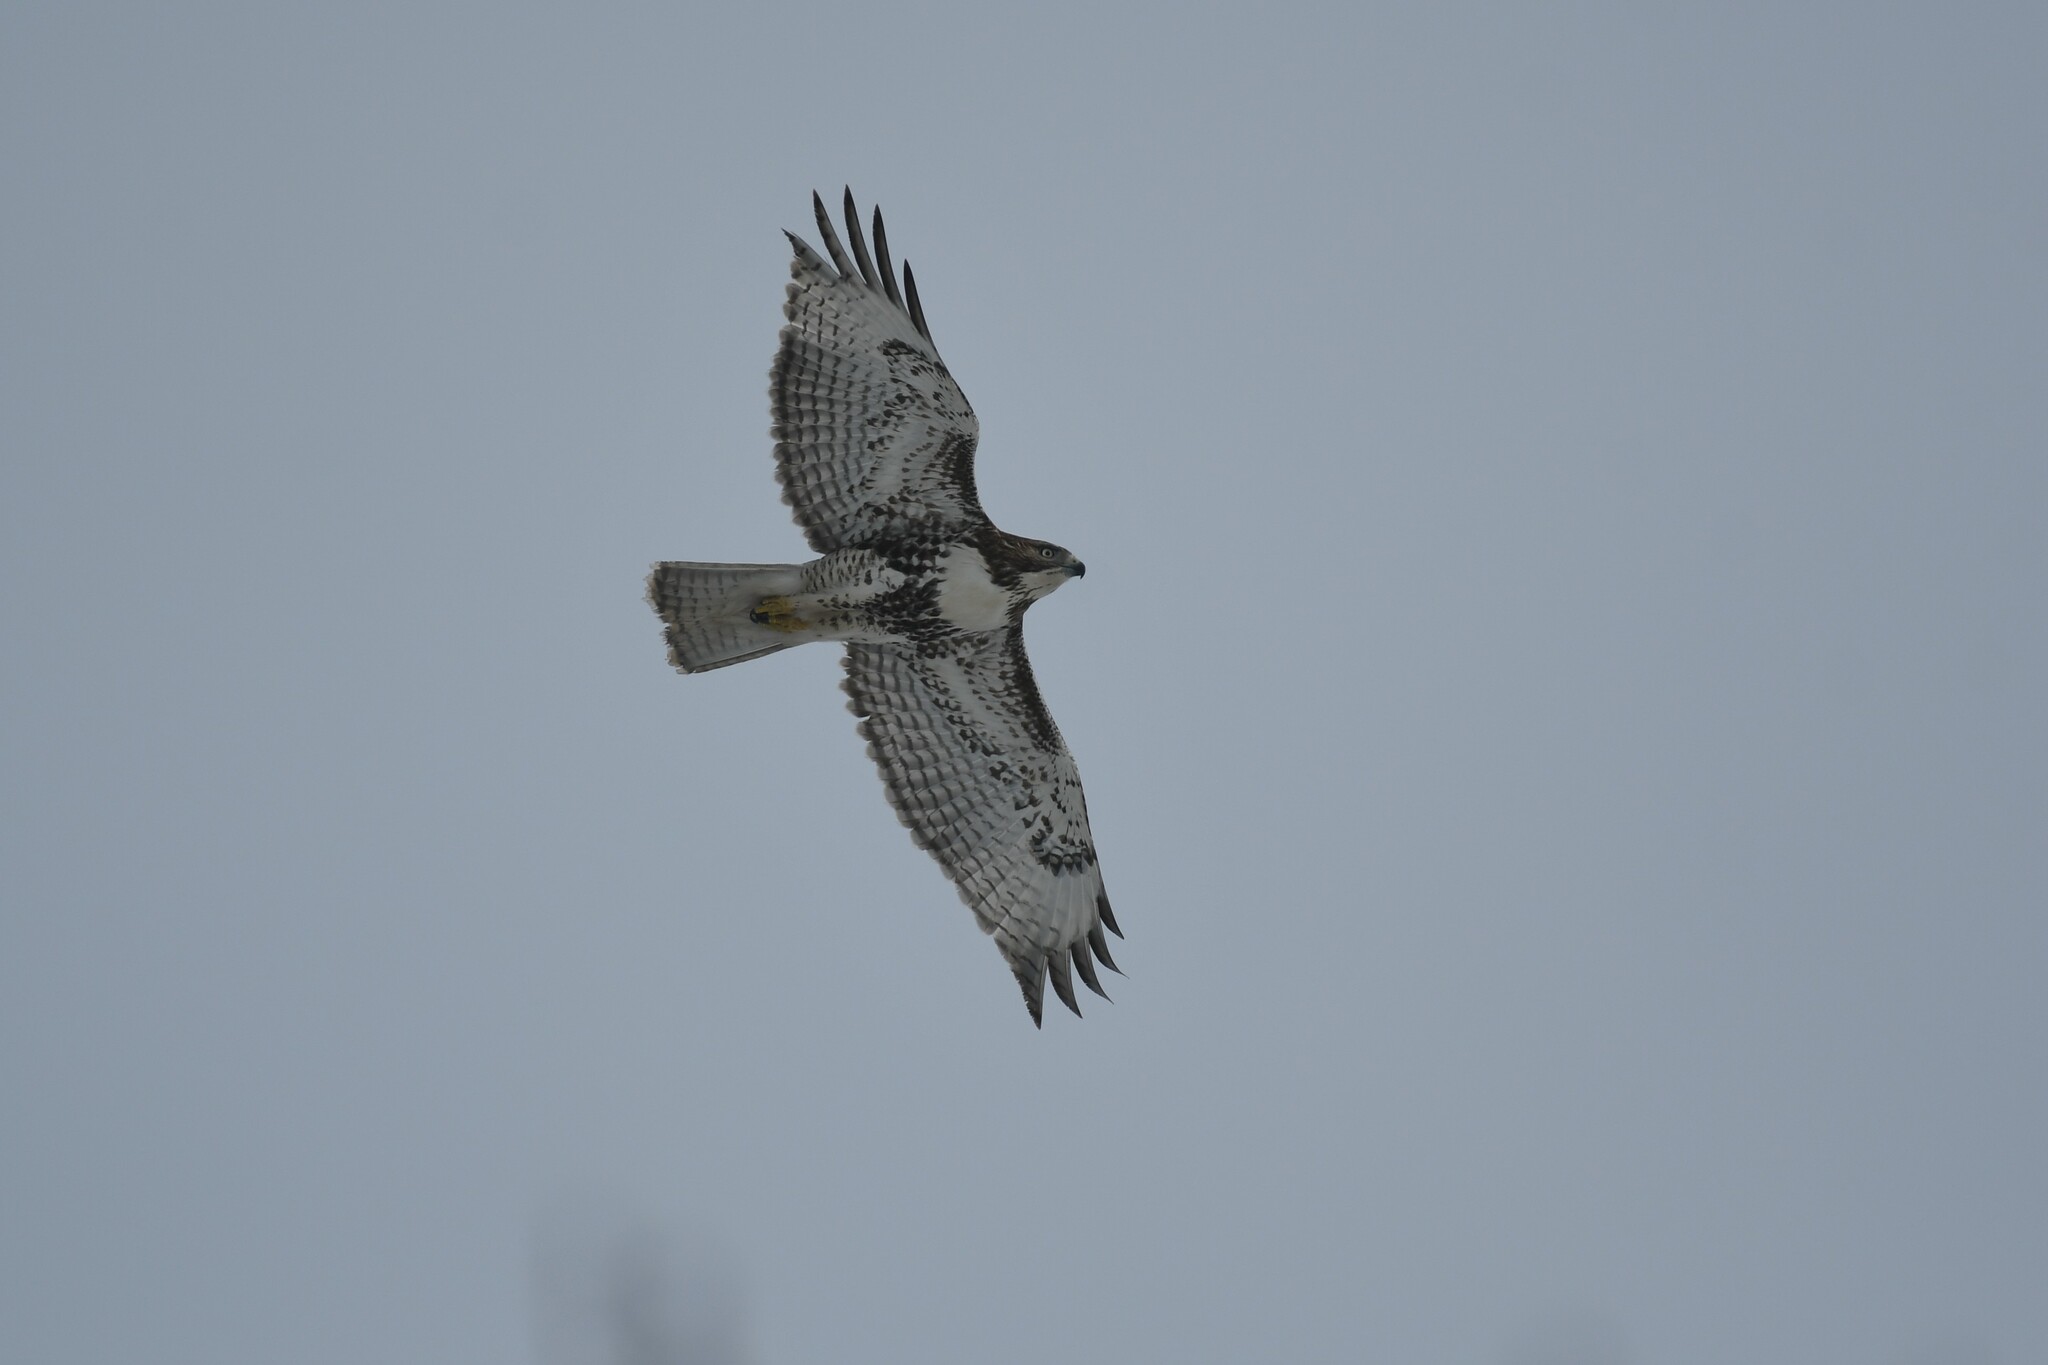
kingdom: Animalia
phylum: Chordata
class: Aves
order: Accipitriformes
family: Accipitridae
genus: Buteo
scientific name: Buteo jamaicensis
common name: Red-tailed hawk
